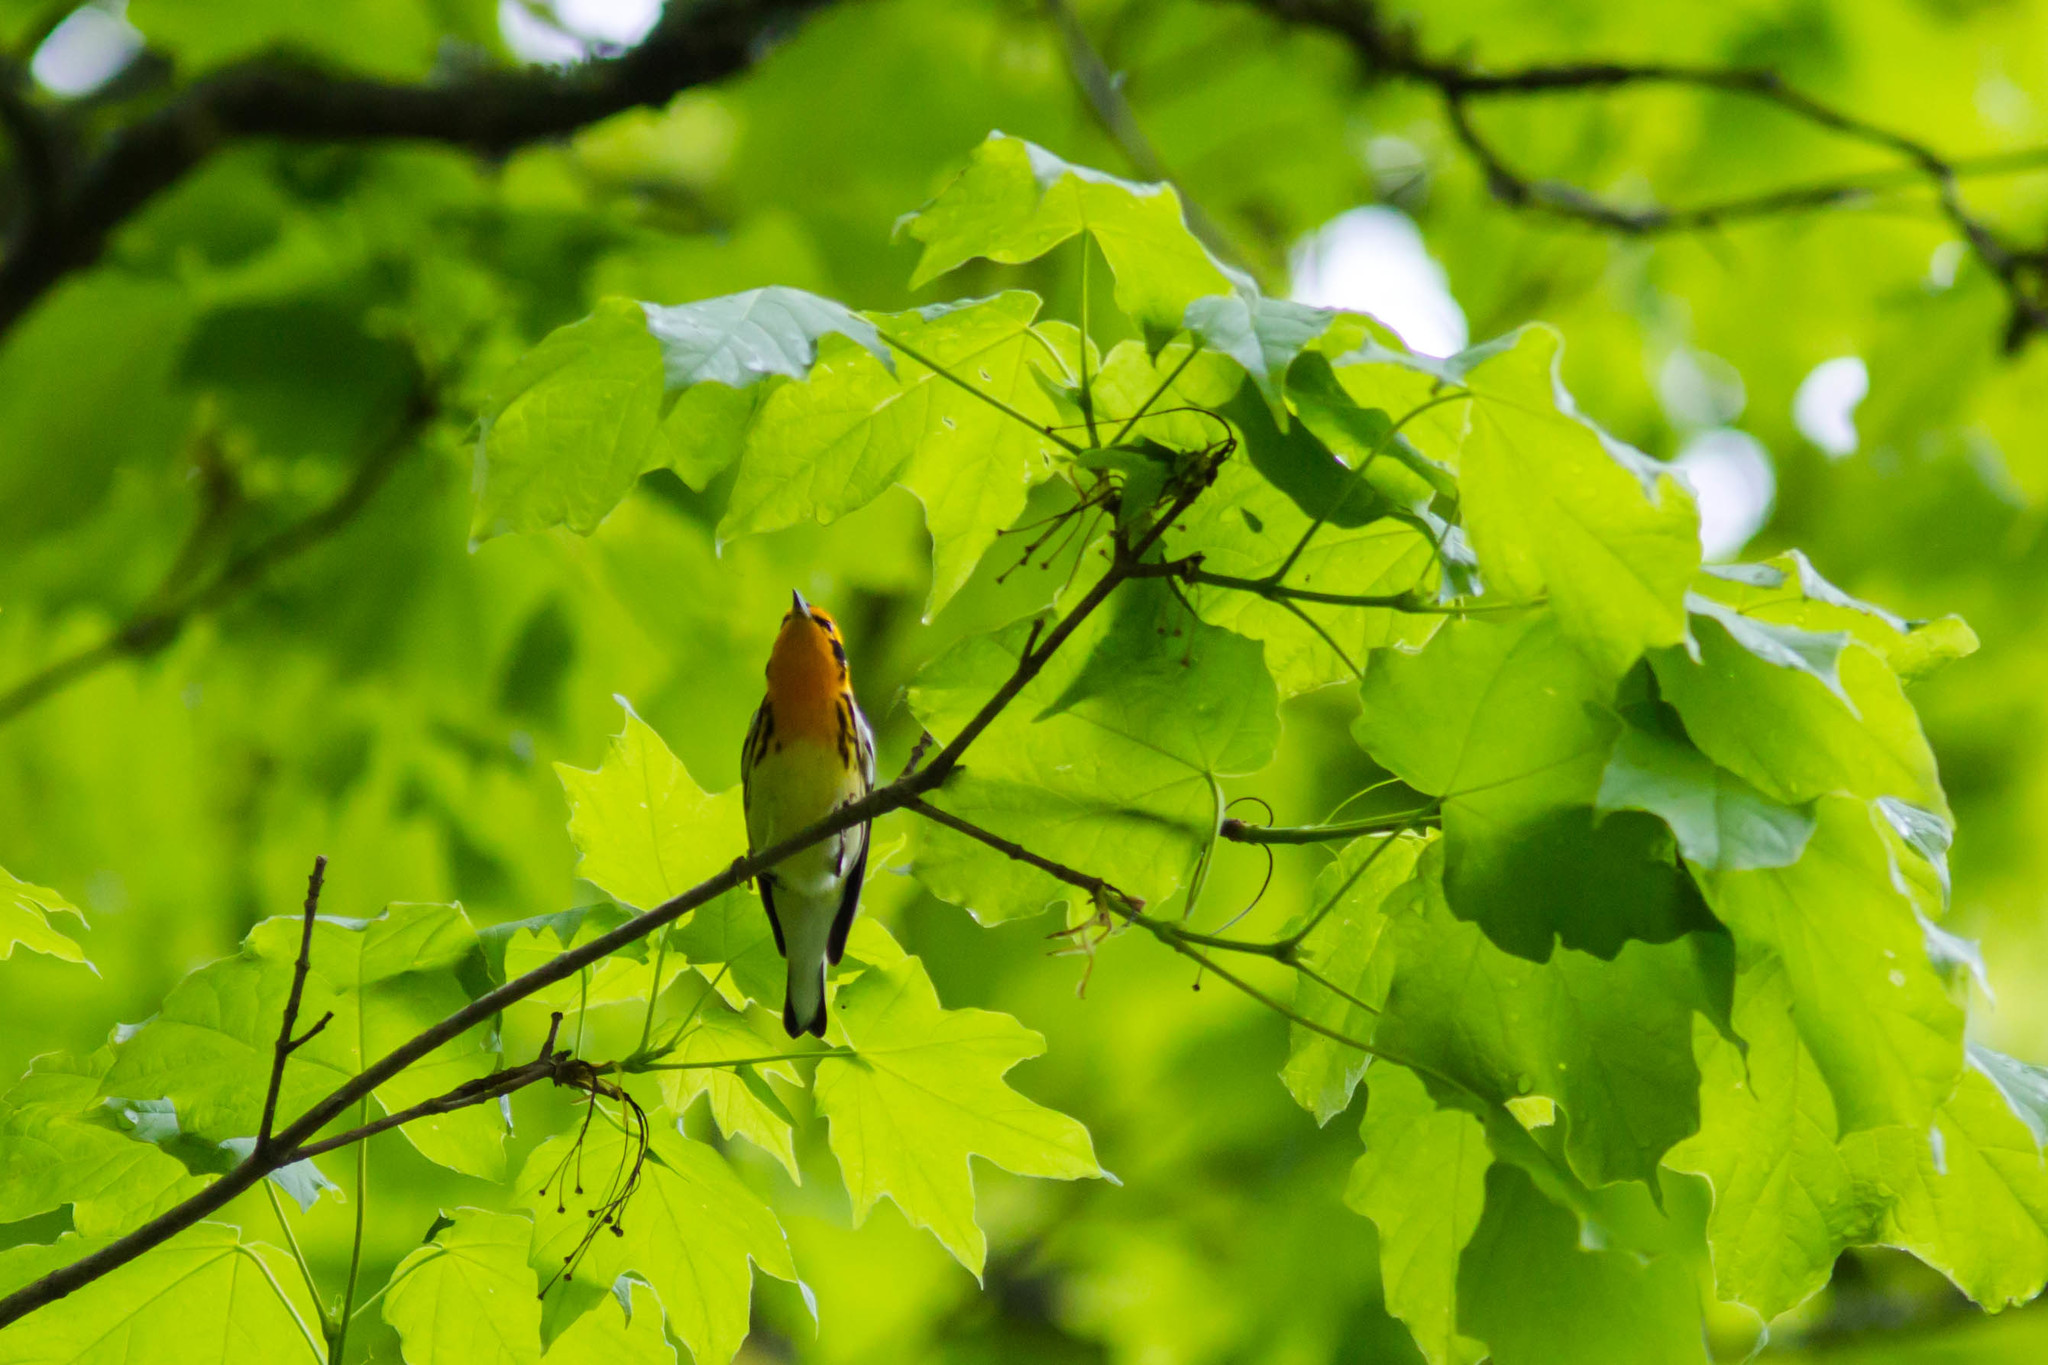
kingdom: Animalia
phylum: Chordata
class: Aves
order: Passeriformes
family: Parulidae
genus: Setophaga
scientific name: Setophaga fusca
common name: Blackburnian warbler
